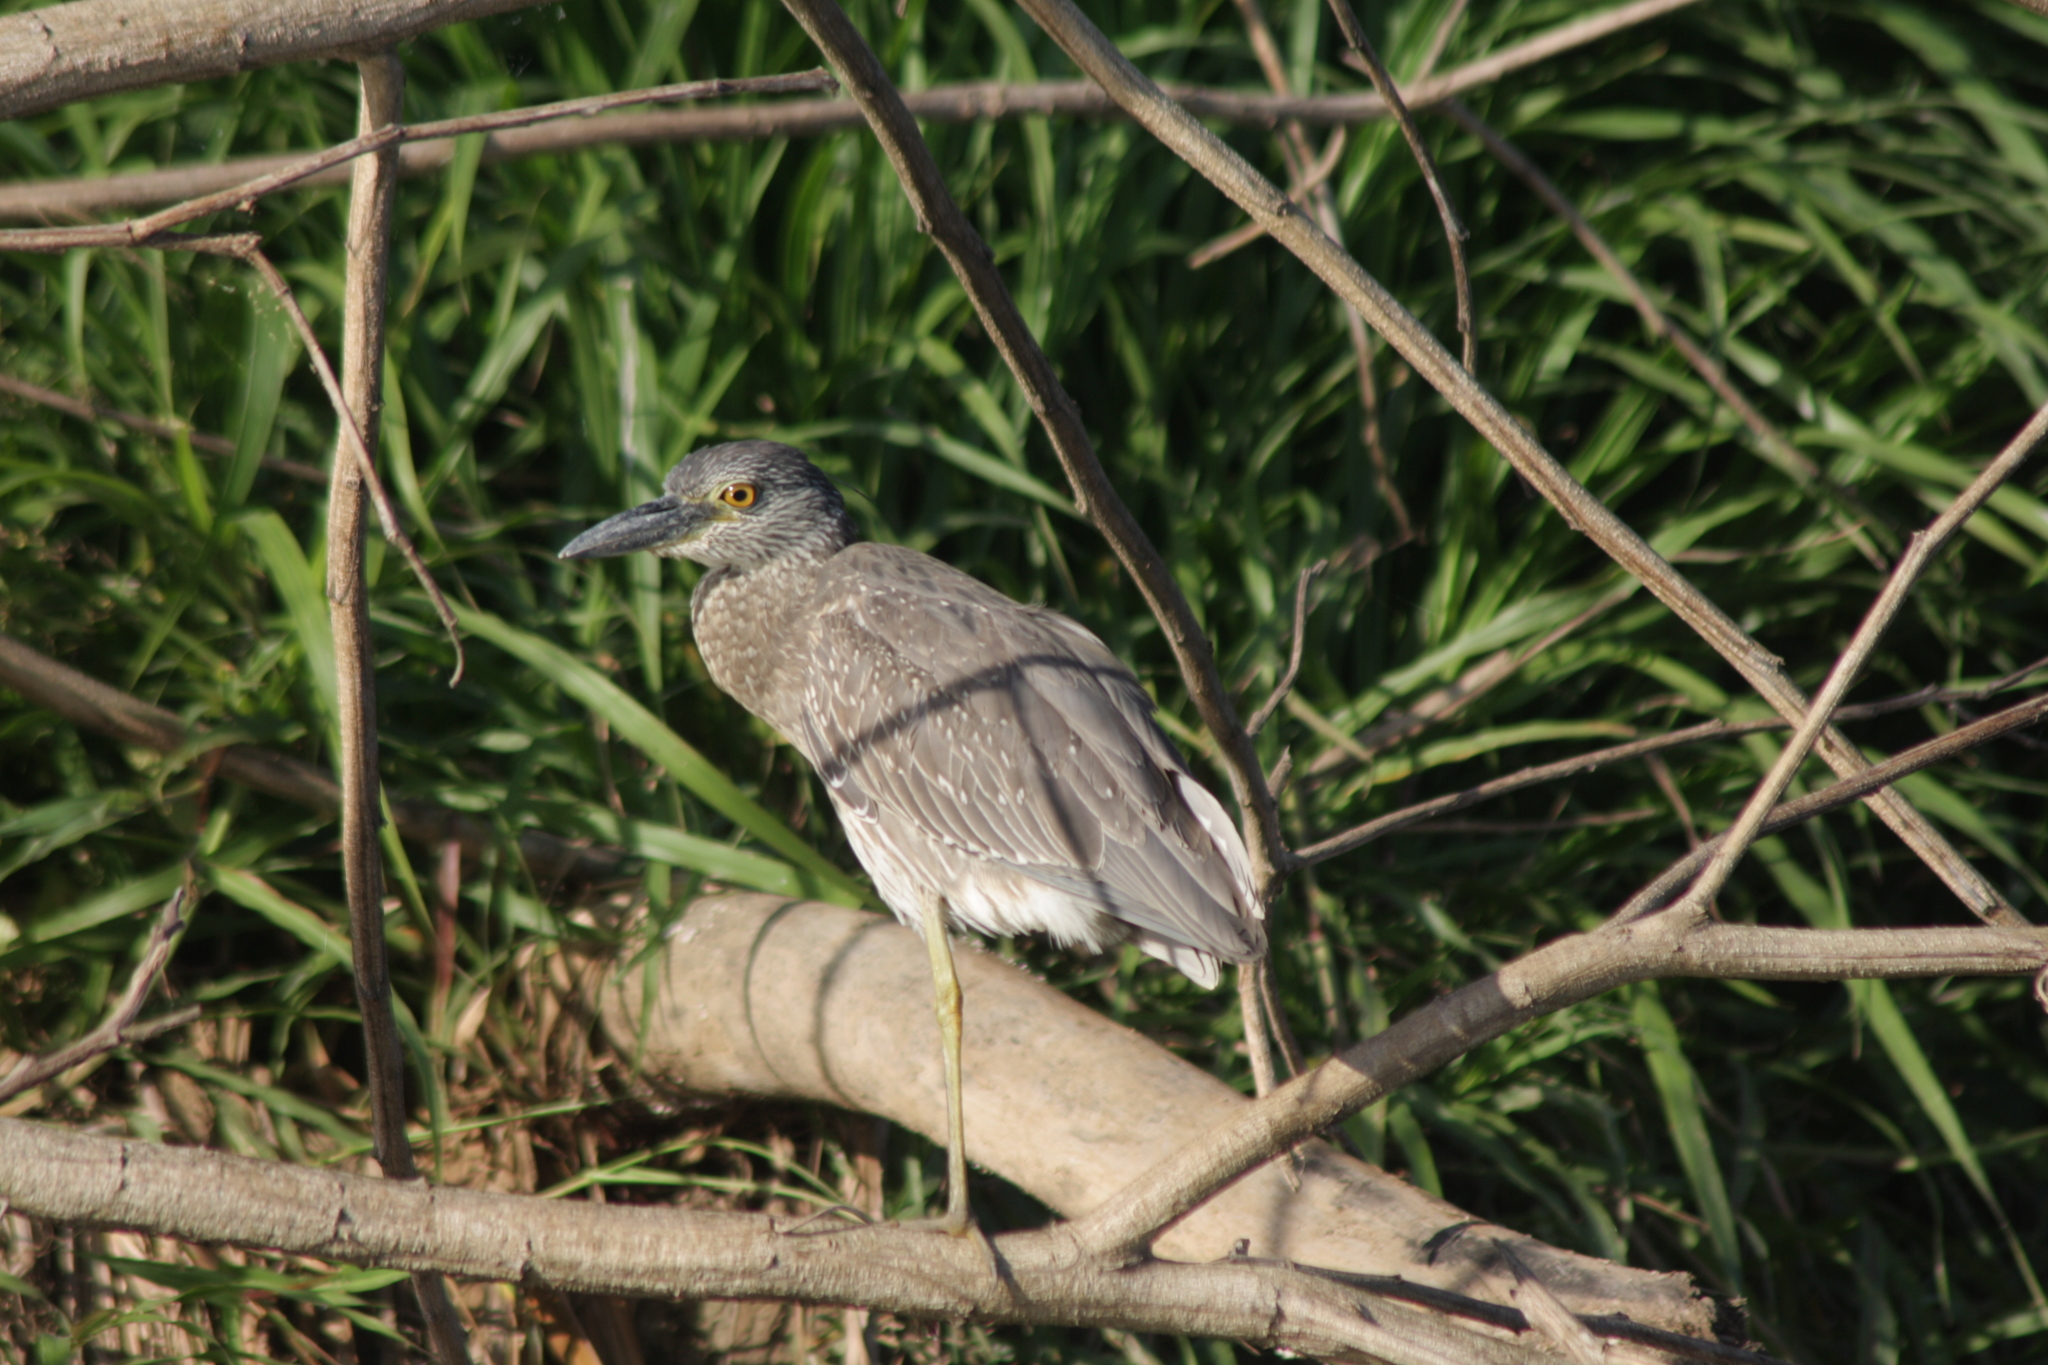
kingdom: Animalia
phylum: Chordata
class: Aves
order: Pelecaniformes
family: Ardeidae
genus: Nyctanassa
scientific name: Nyctanassa violacea
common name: Yellow-crowned night heron
